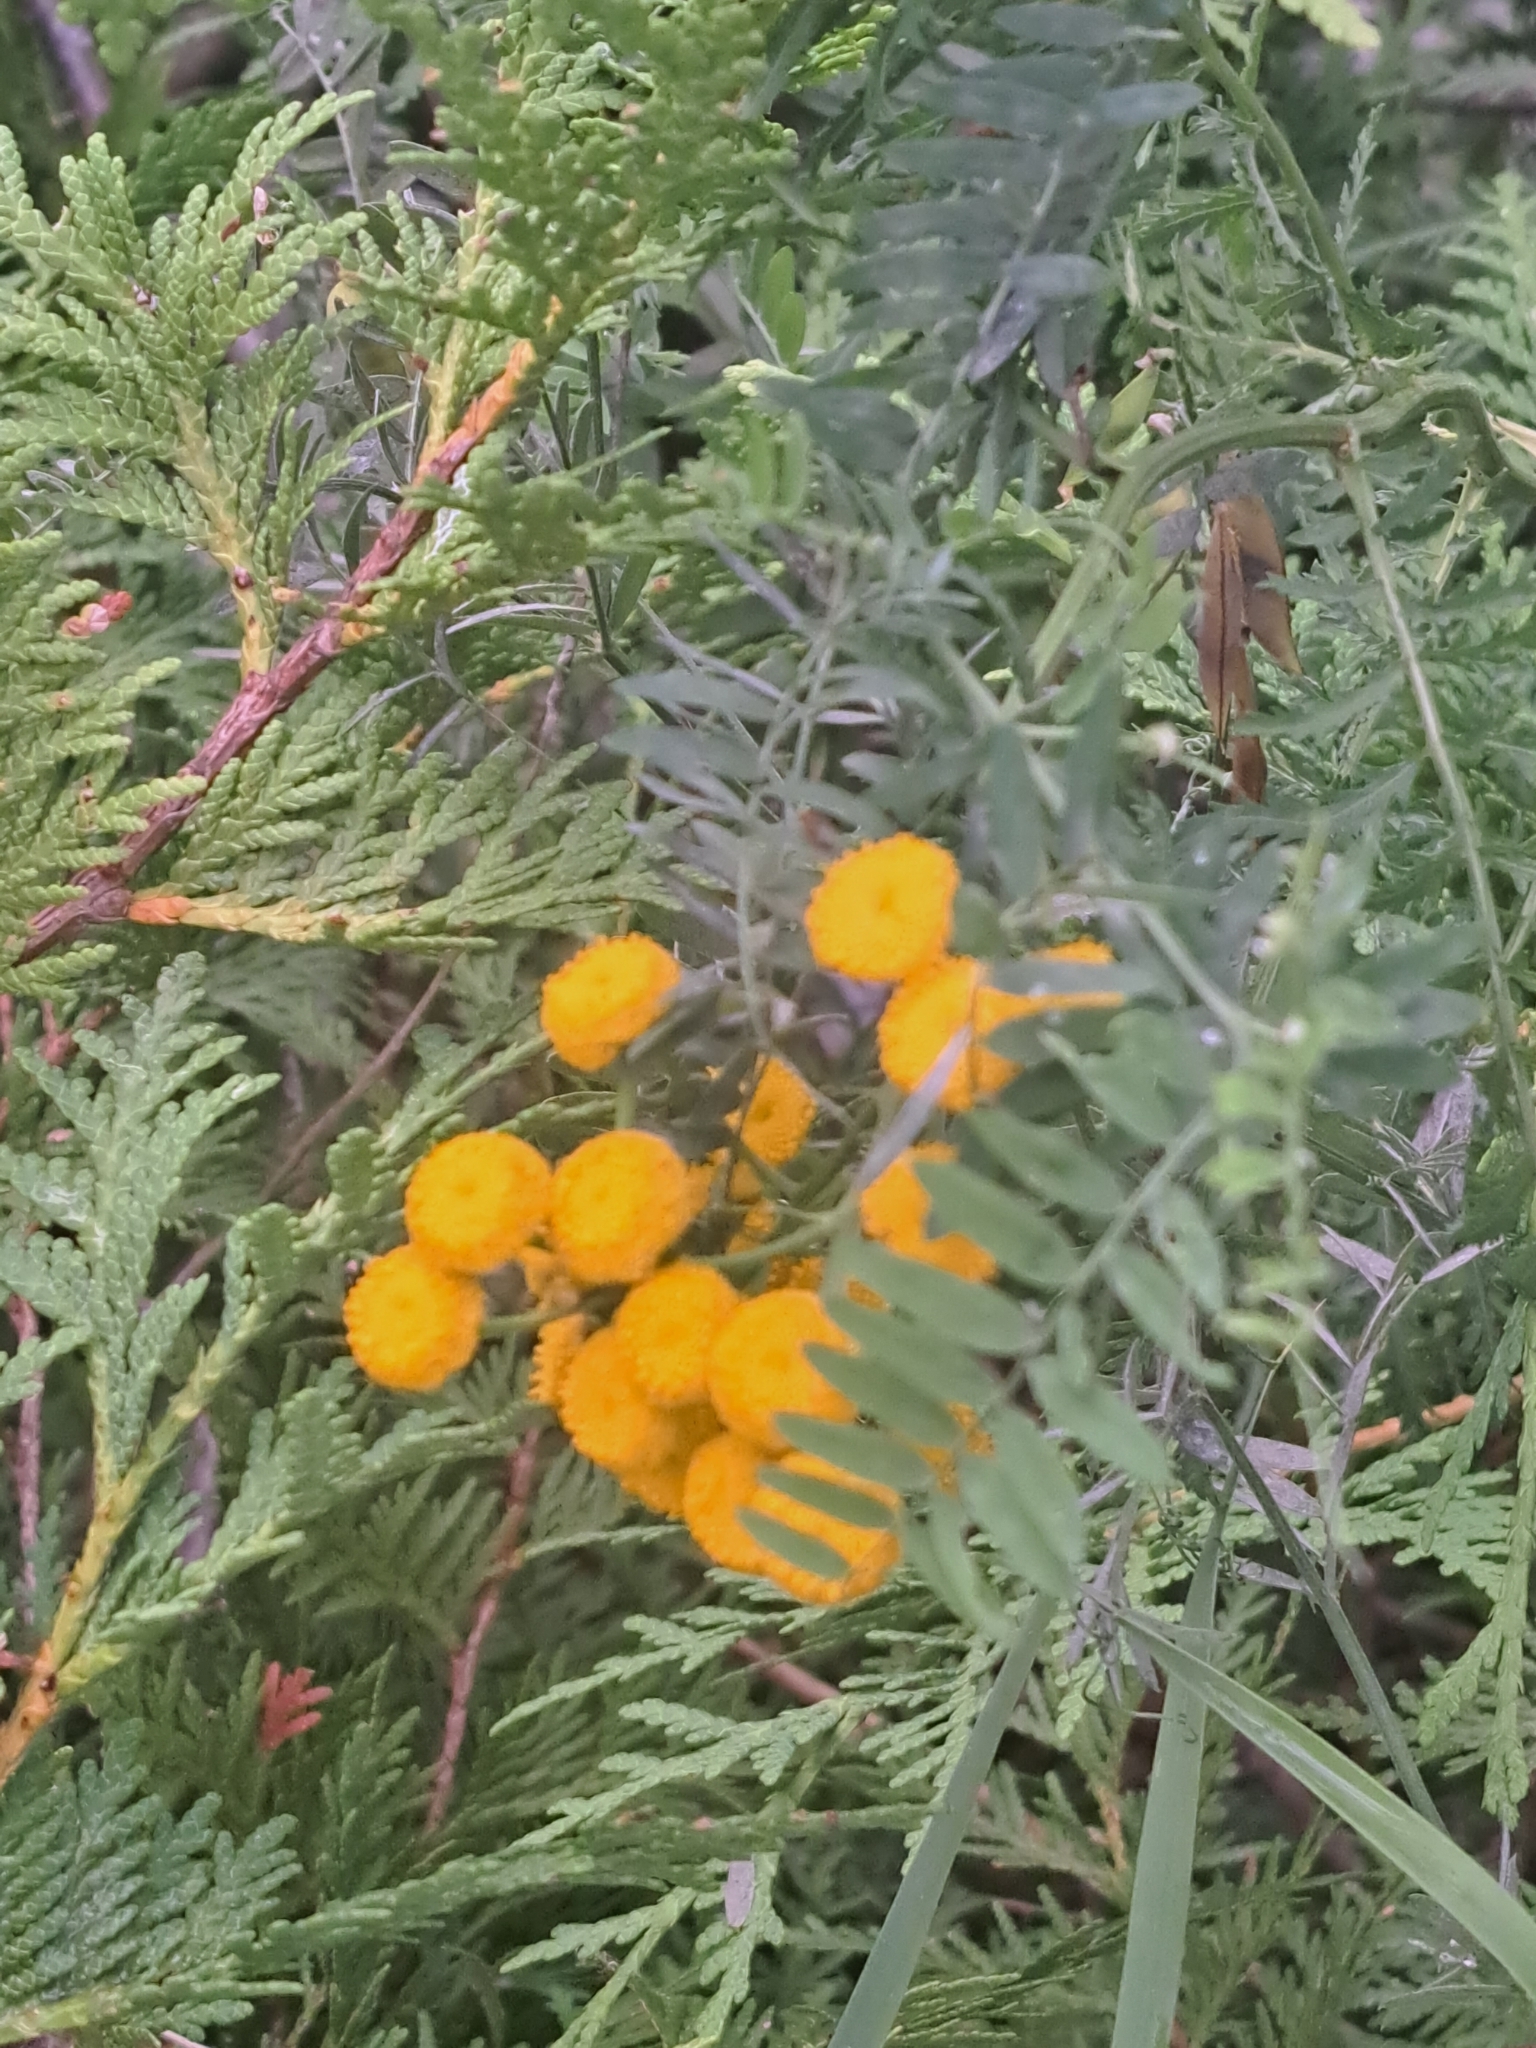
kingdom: Plantae
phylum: Tracheophyta
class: Magnoliopsida
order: Asterales
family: Asteraceae
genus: Tanacetum
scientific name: Tanacetum vulgare
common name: Common tansy
